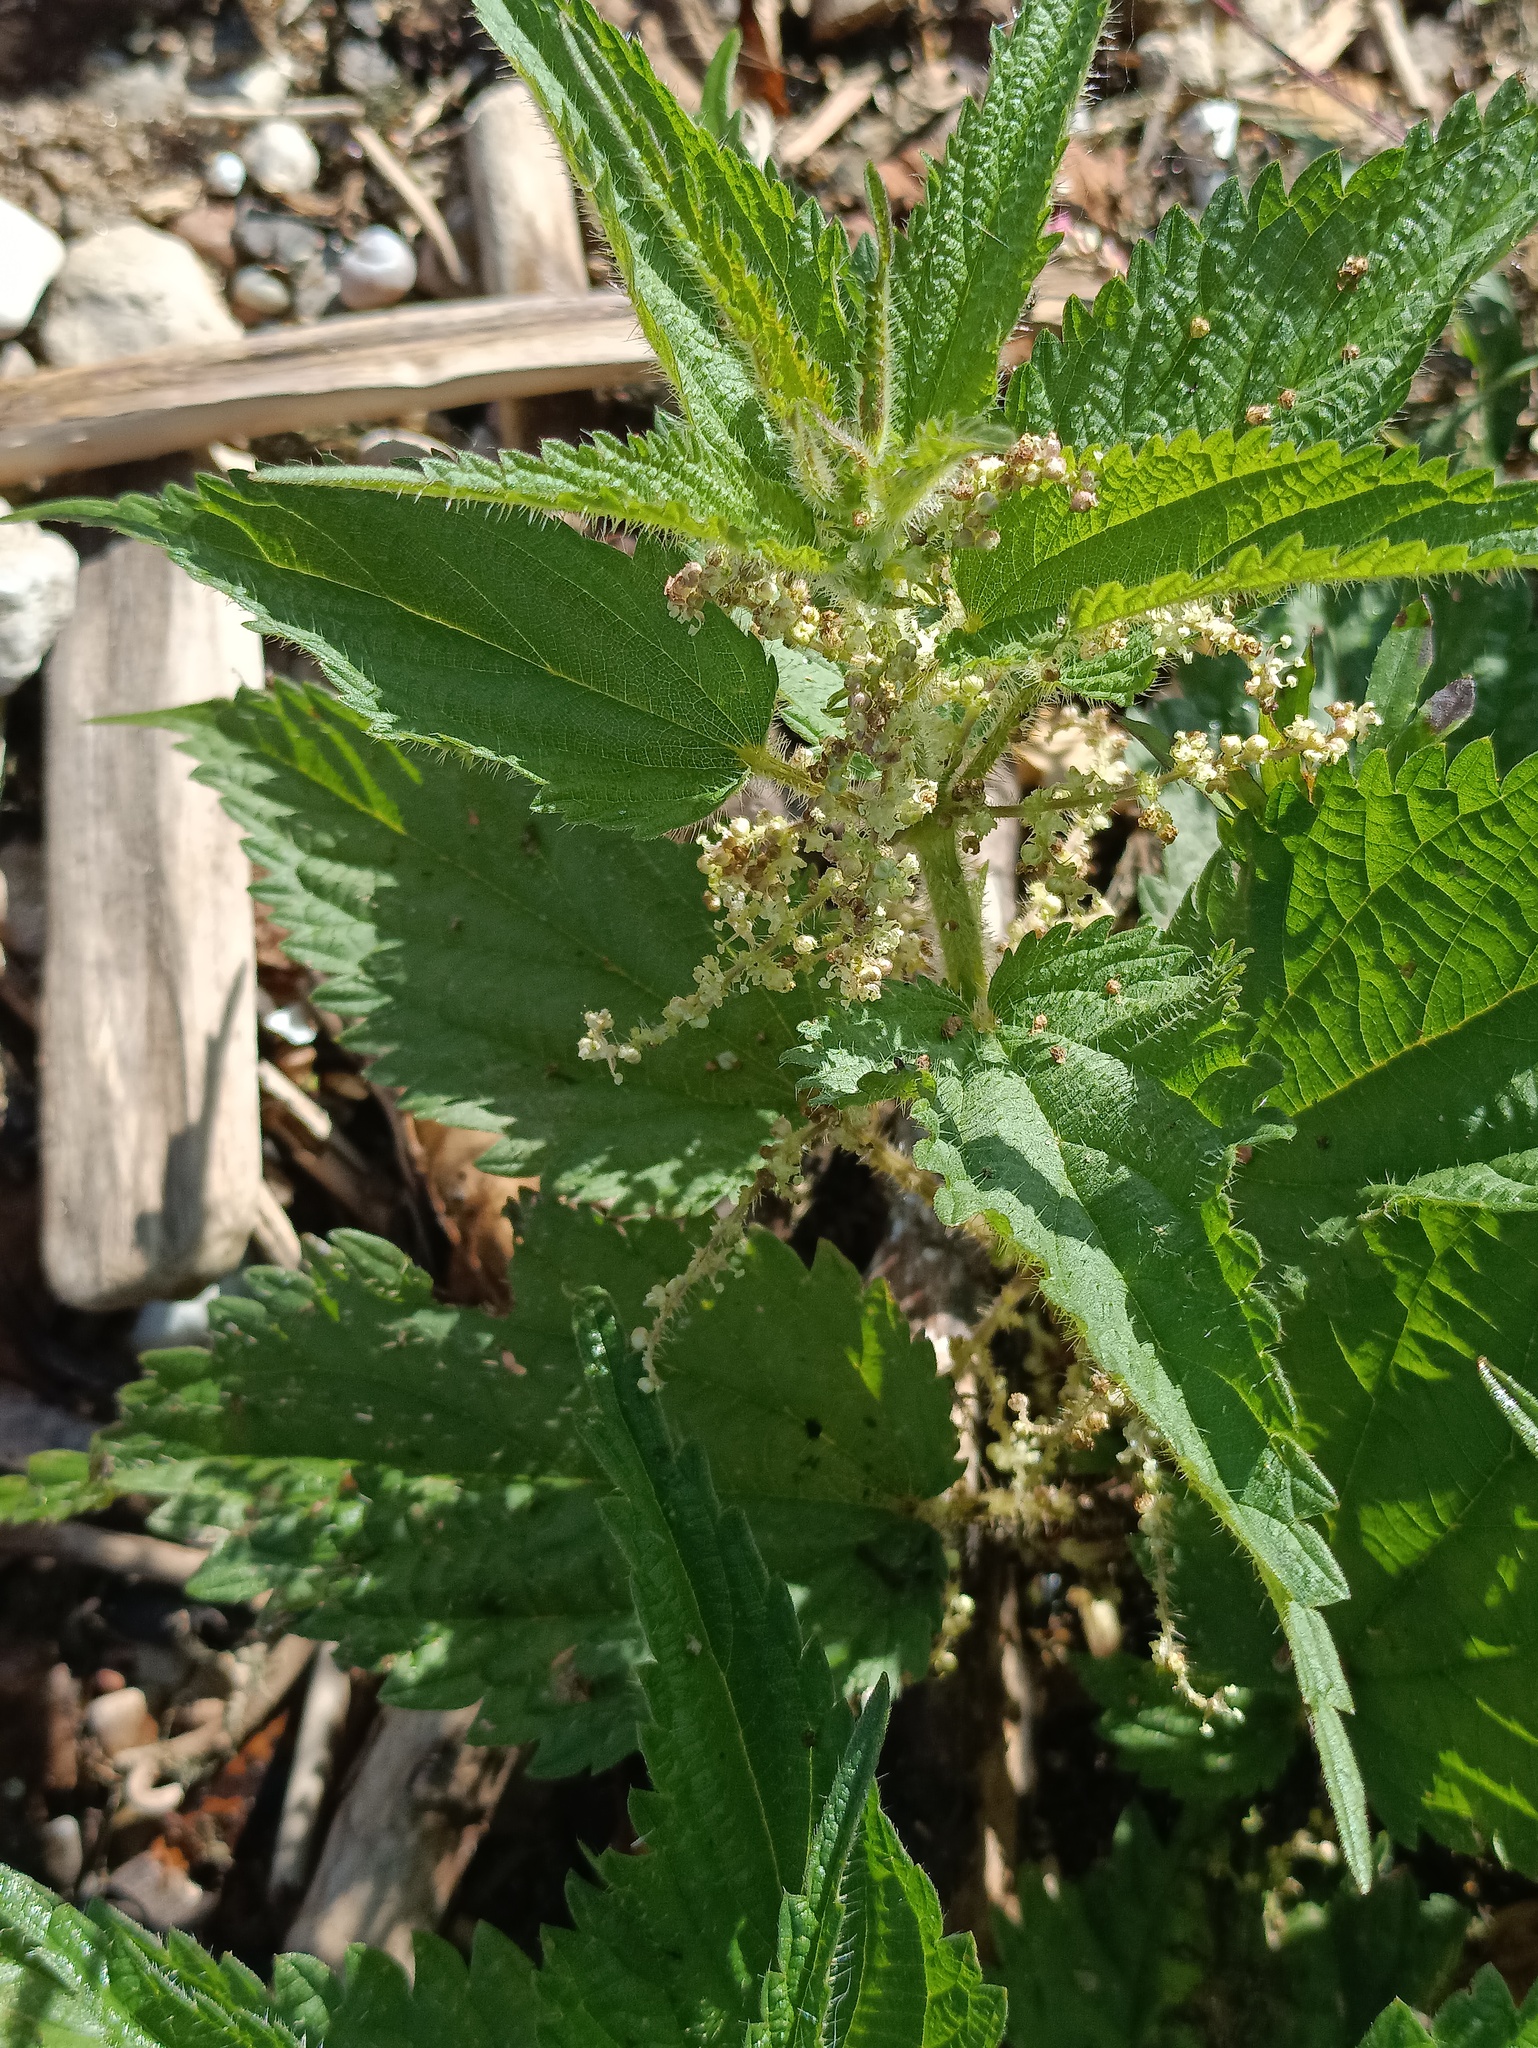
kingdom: Plantae
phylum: Tracheophyta
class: Magnoliopsida
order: Rosales
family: Urticaceae
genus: Urtica
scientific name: Urtica dioica
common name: Common nettle
